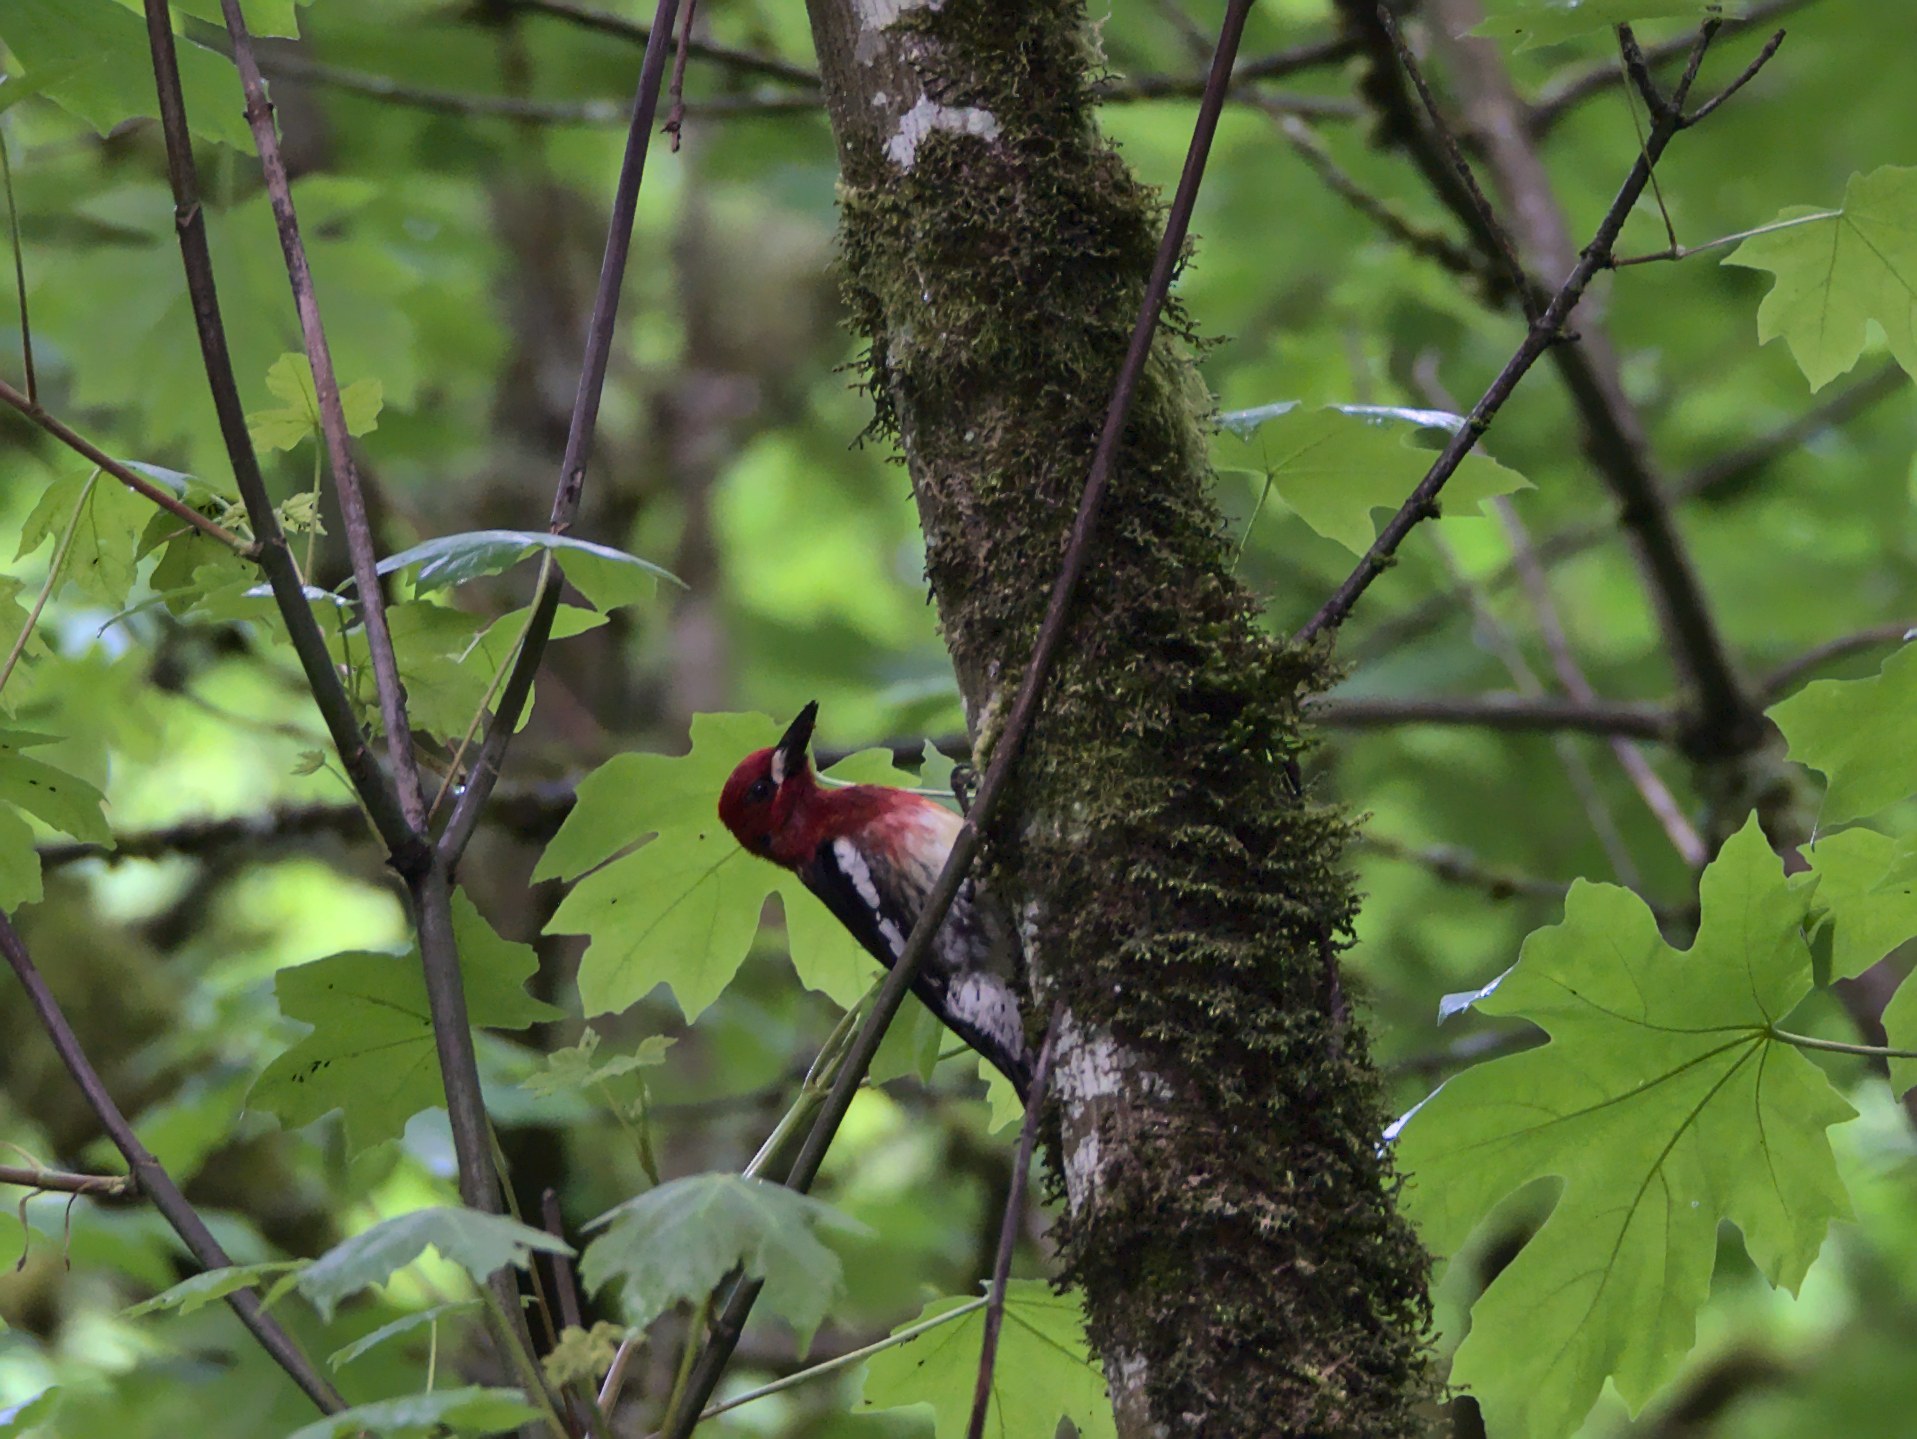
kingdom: Animalia
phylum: Chordata
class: Aves
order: Piciformes
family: Picidae
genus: Sphyrapicus
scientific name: Sphyrapicus ruber
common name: Red-breasted sapsucker
